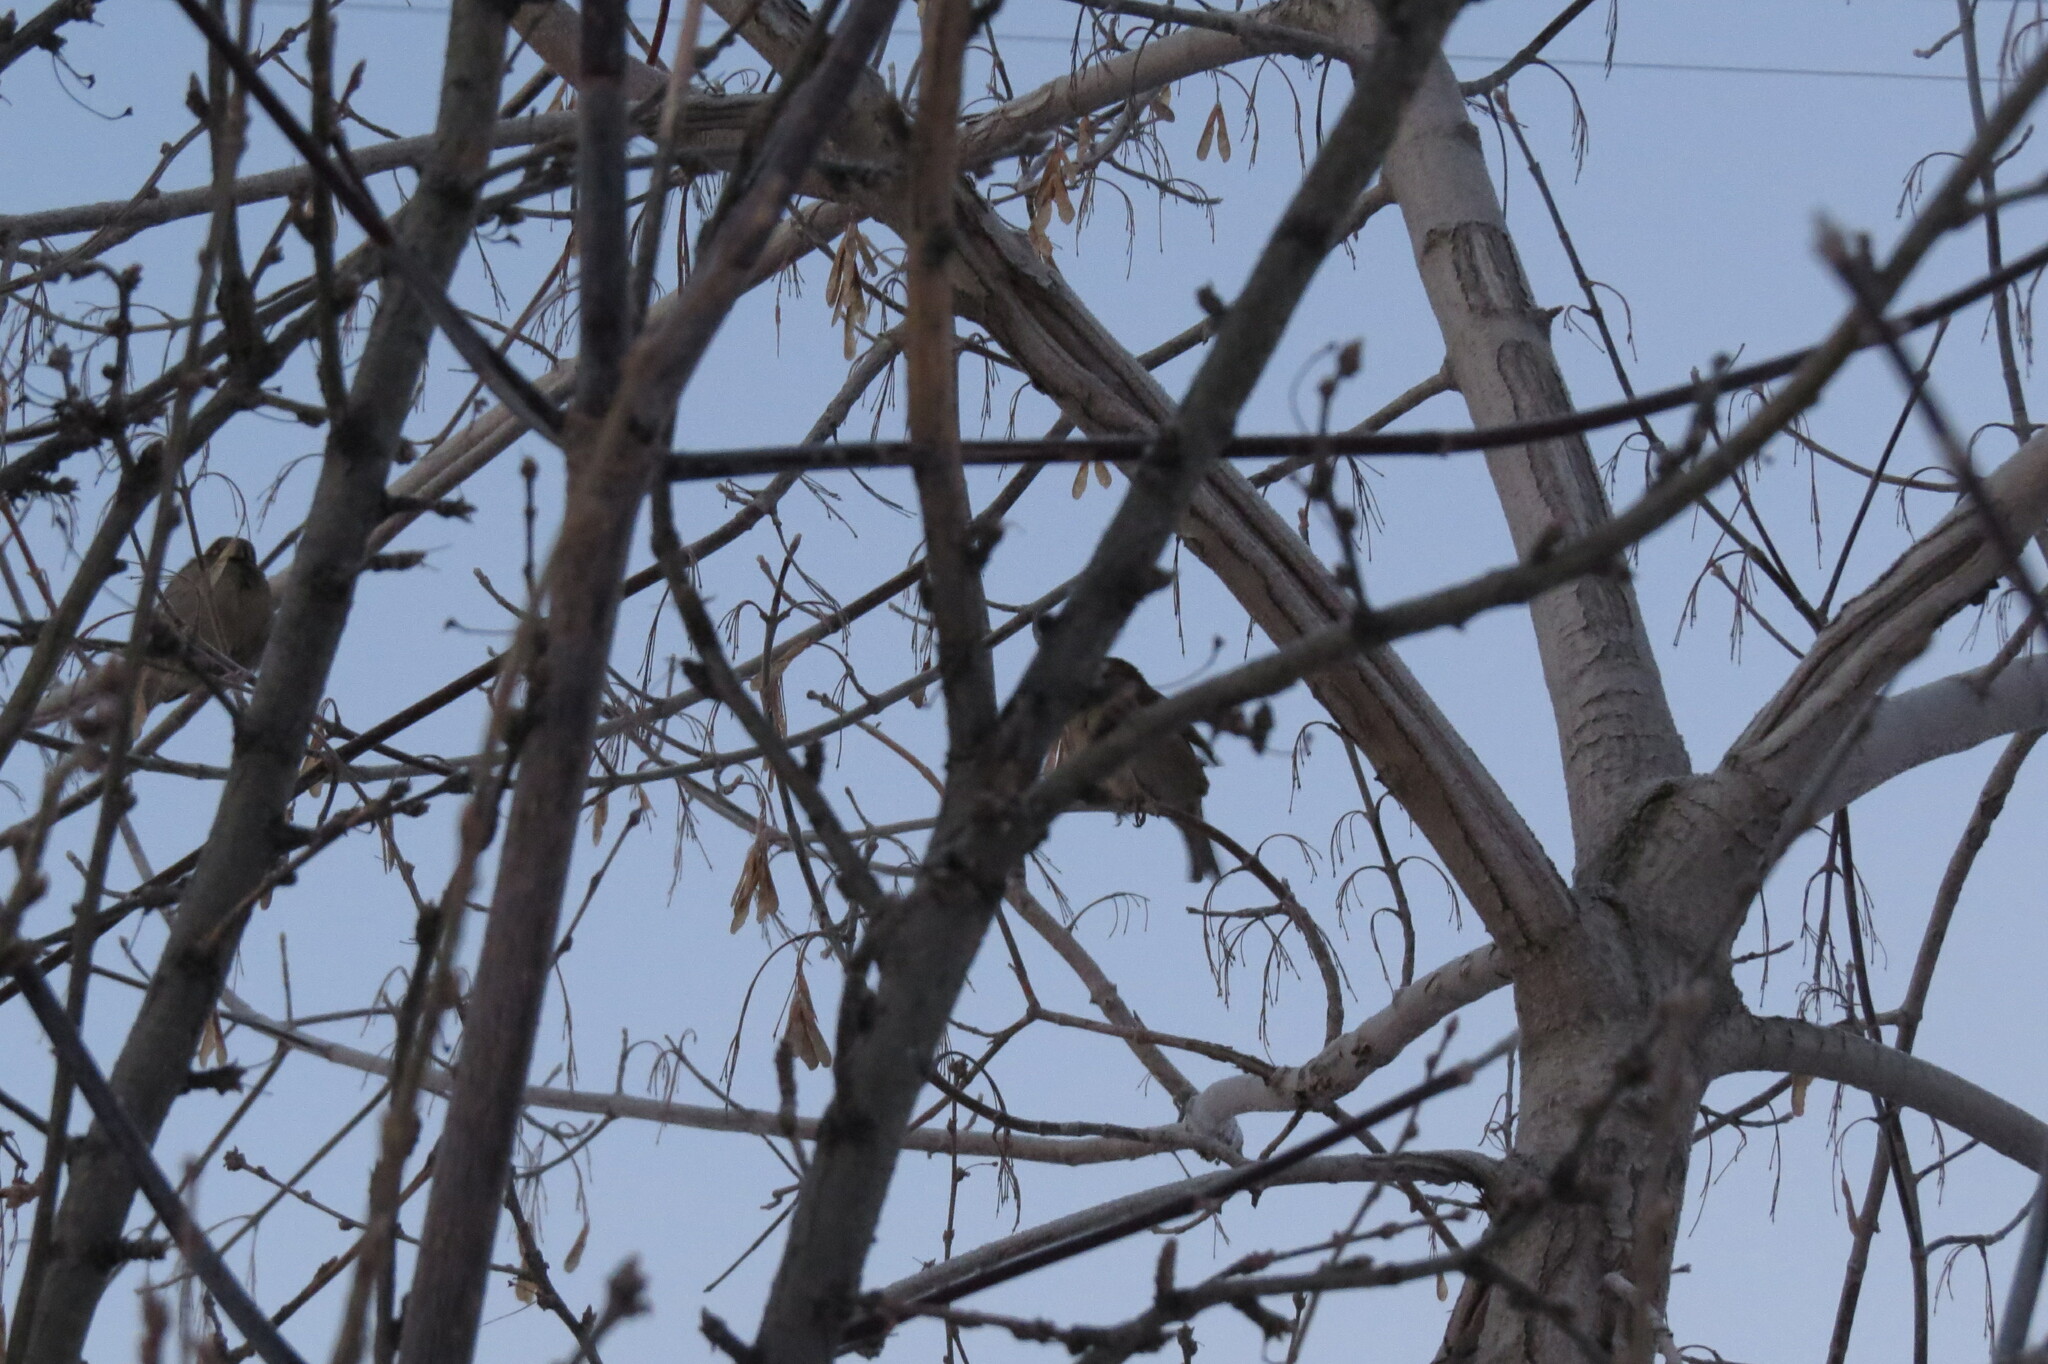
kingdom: Animalia
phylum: Chordata
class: Aves
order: Passeriformes
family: Passeridae
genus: Passer
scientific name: Passer domesticus
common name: House sparrow
